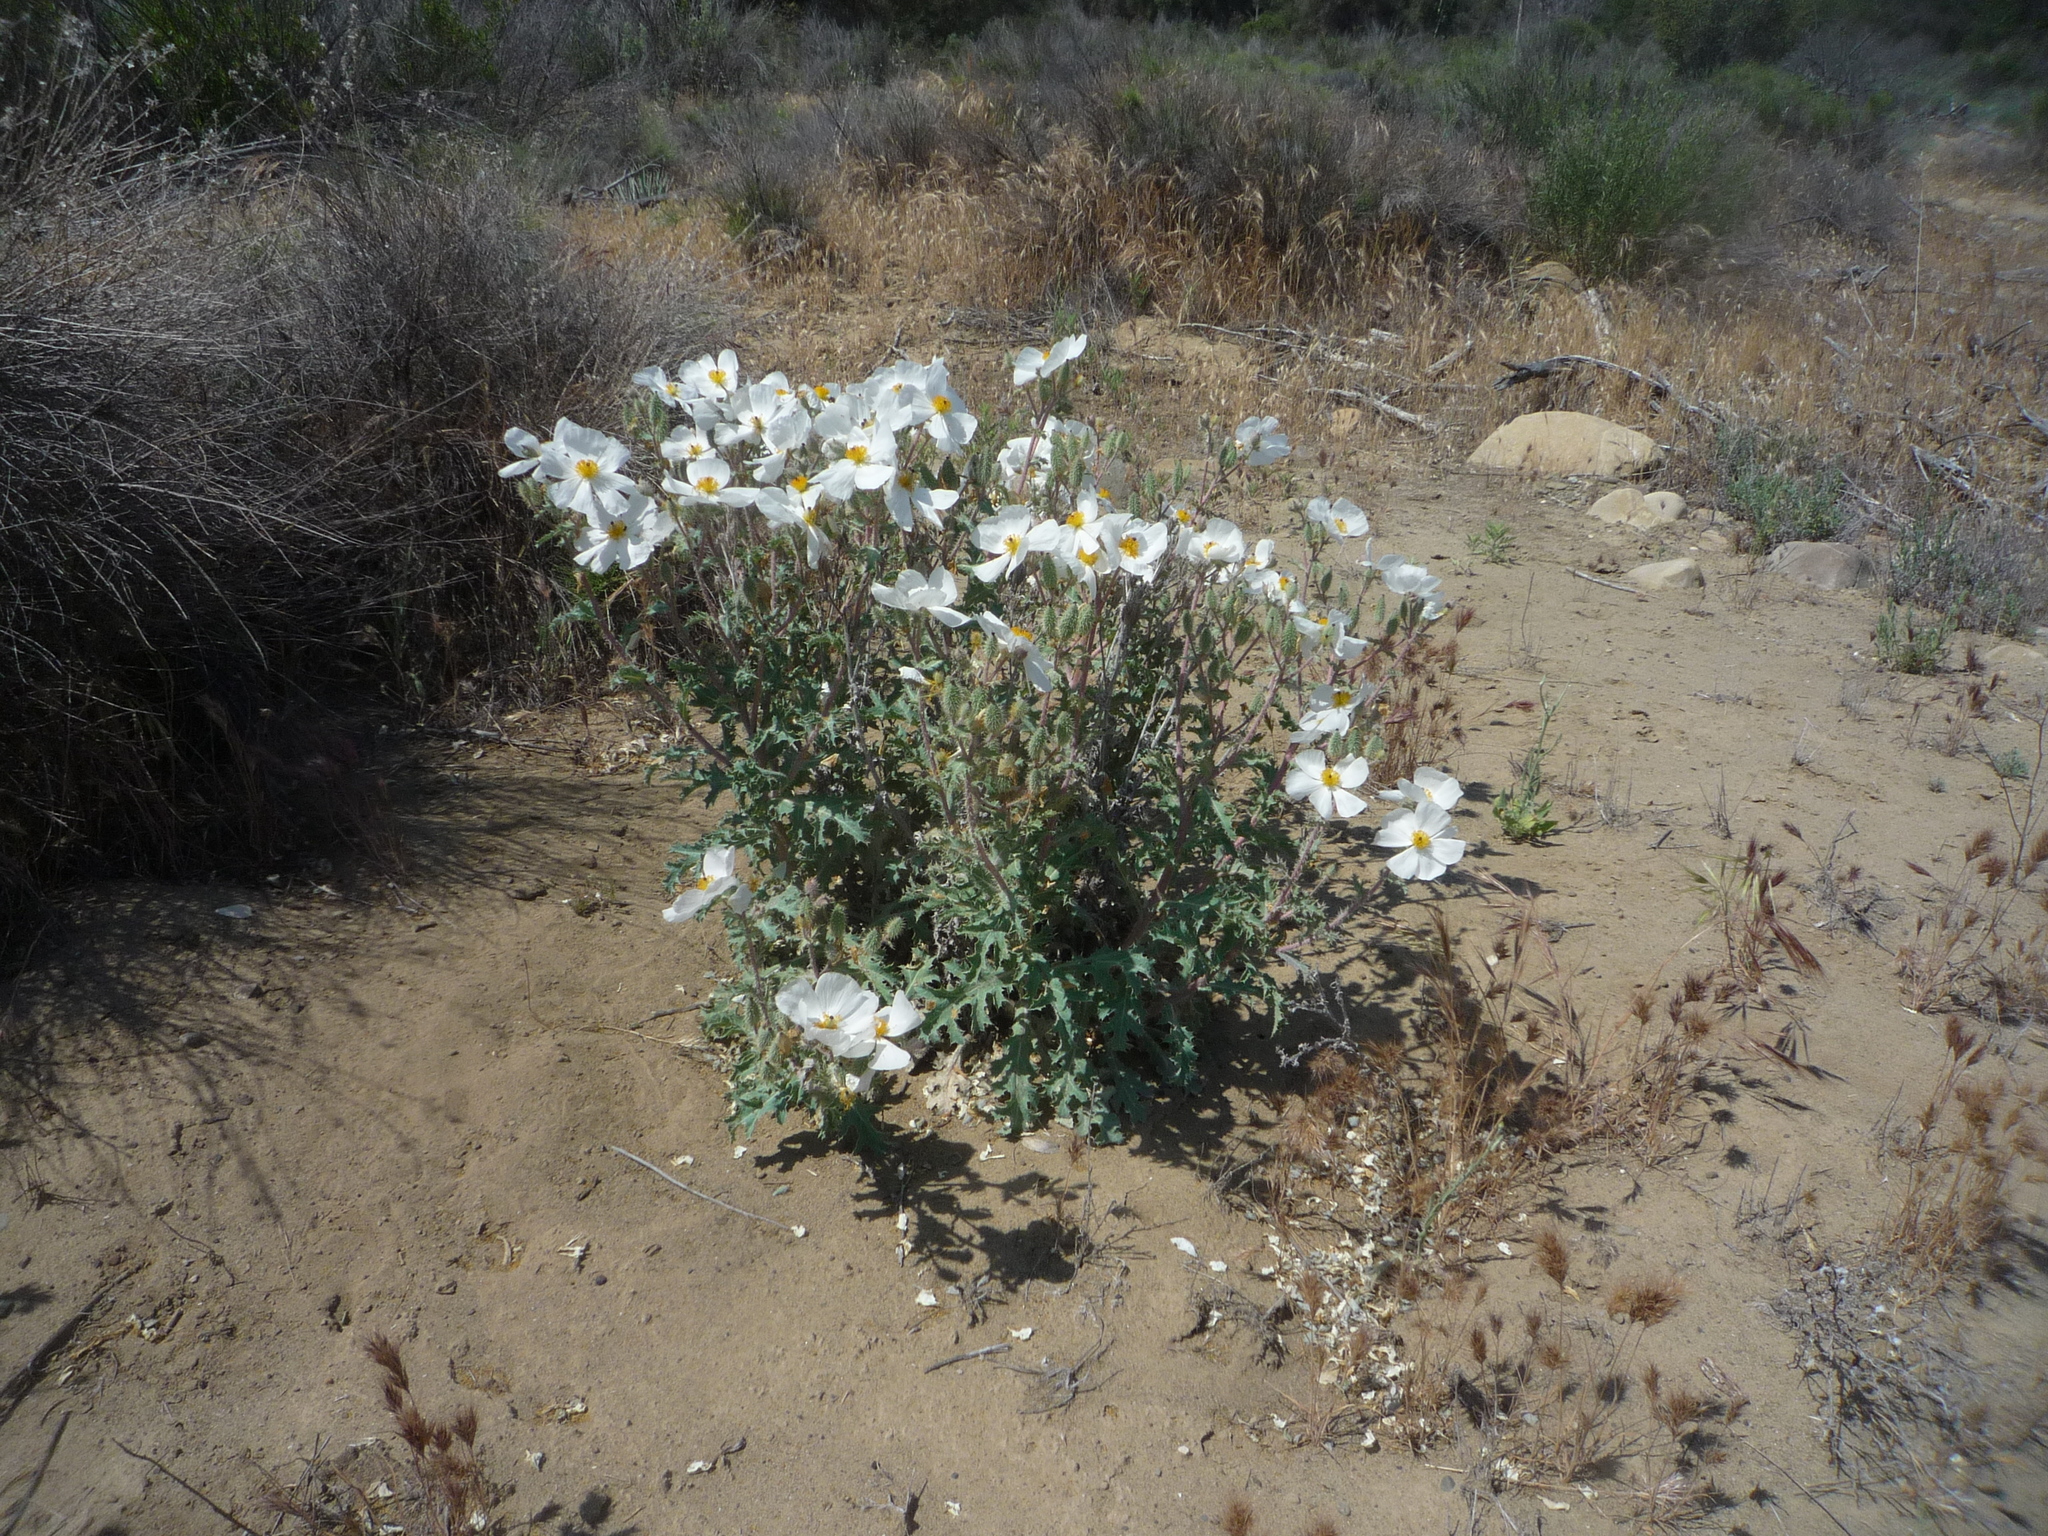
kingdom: Plantae
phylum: Tracheophyta
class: Magnoliopsida
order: Ranunculales
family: Papaveraceae
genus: Argemone
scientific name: Argemone munita
